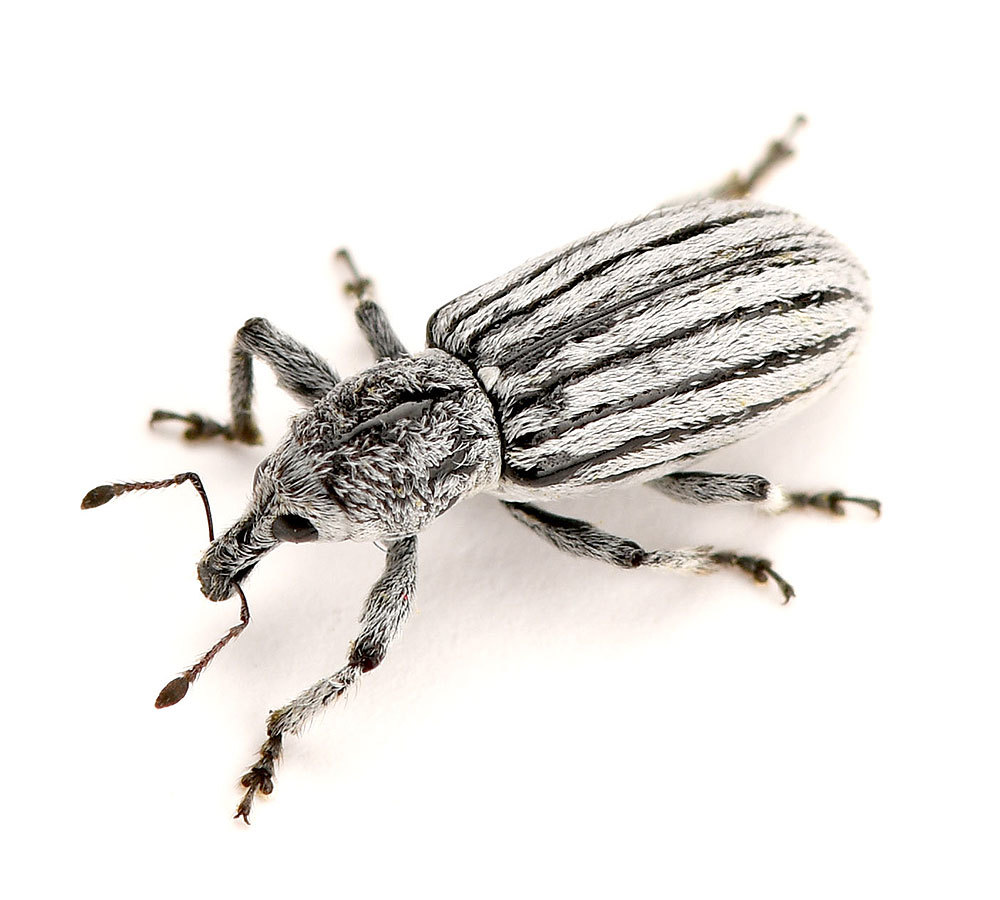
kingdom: Animalia
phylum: Arthropoda
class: Insecta
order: Coleoptera
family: Curculionidae
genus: Myrmex
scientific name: Myrmex lineatus
